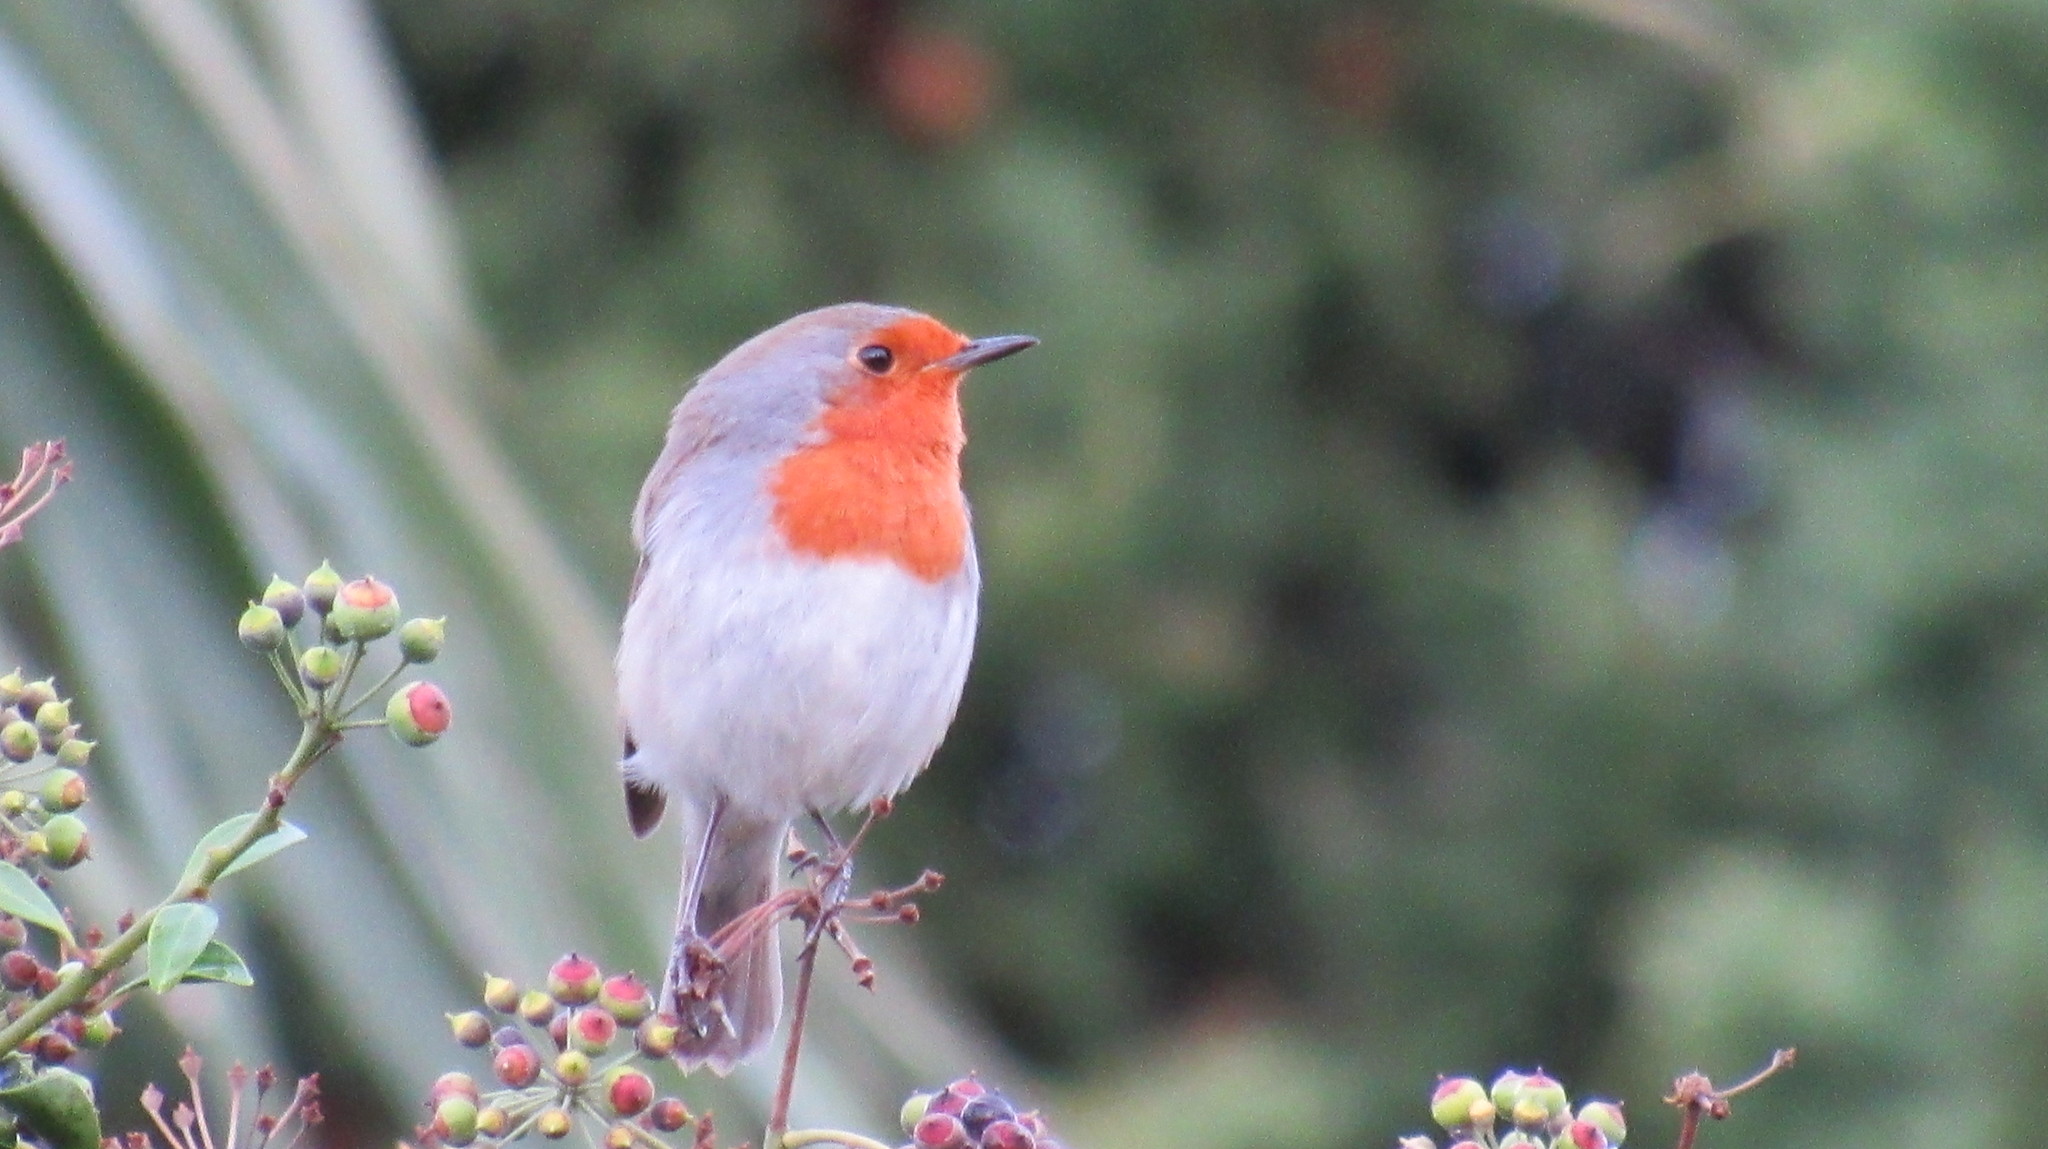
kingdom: Animalia
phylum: Chordata
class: Aves
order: Passeriformes
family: Muscicapidae
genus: Erithacus
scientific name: Erithacus rubecula
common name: European robin
